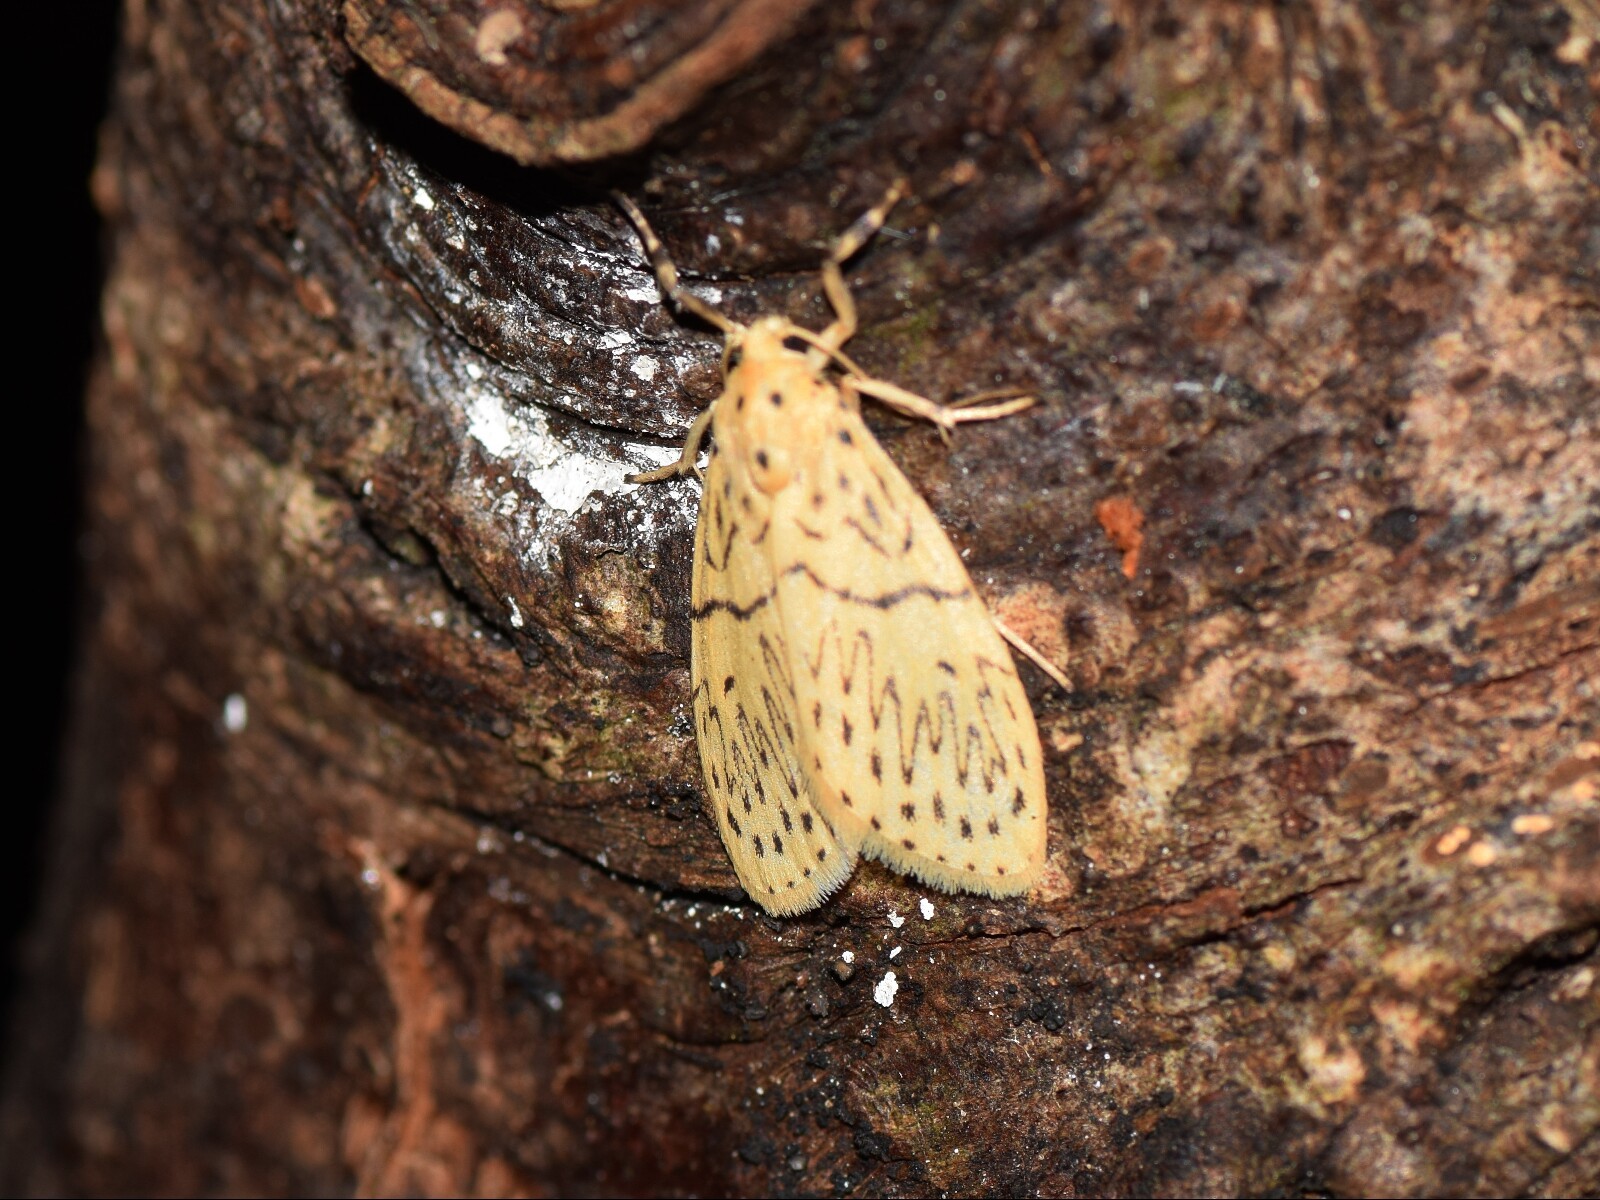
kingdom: Animalia
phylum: Arthropoda
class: Insecta
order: Lepidoptera
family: Erebidae
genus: Miltochrista
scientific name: Miltochrista undulosa
